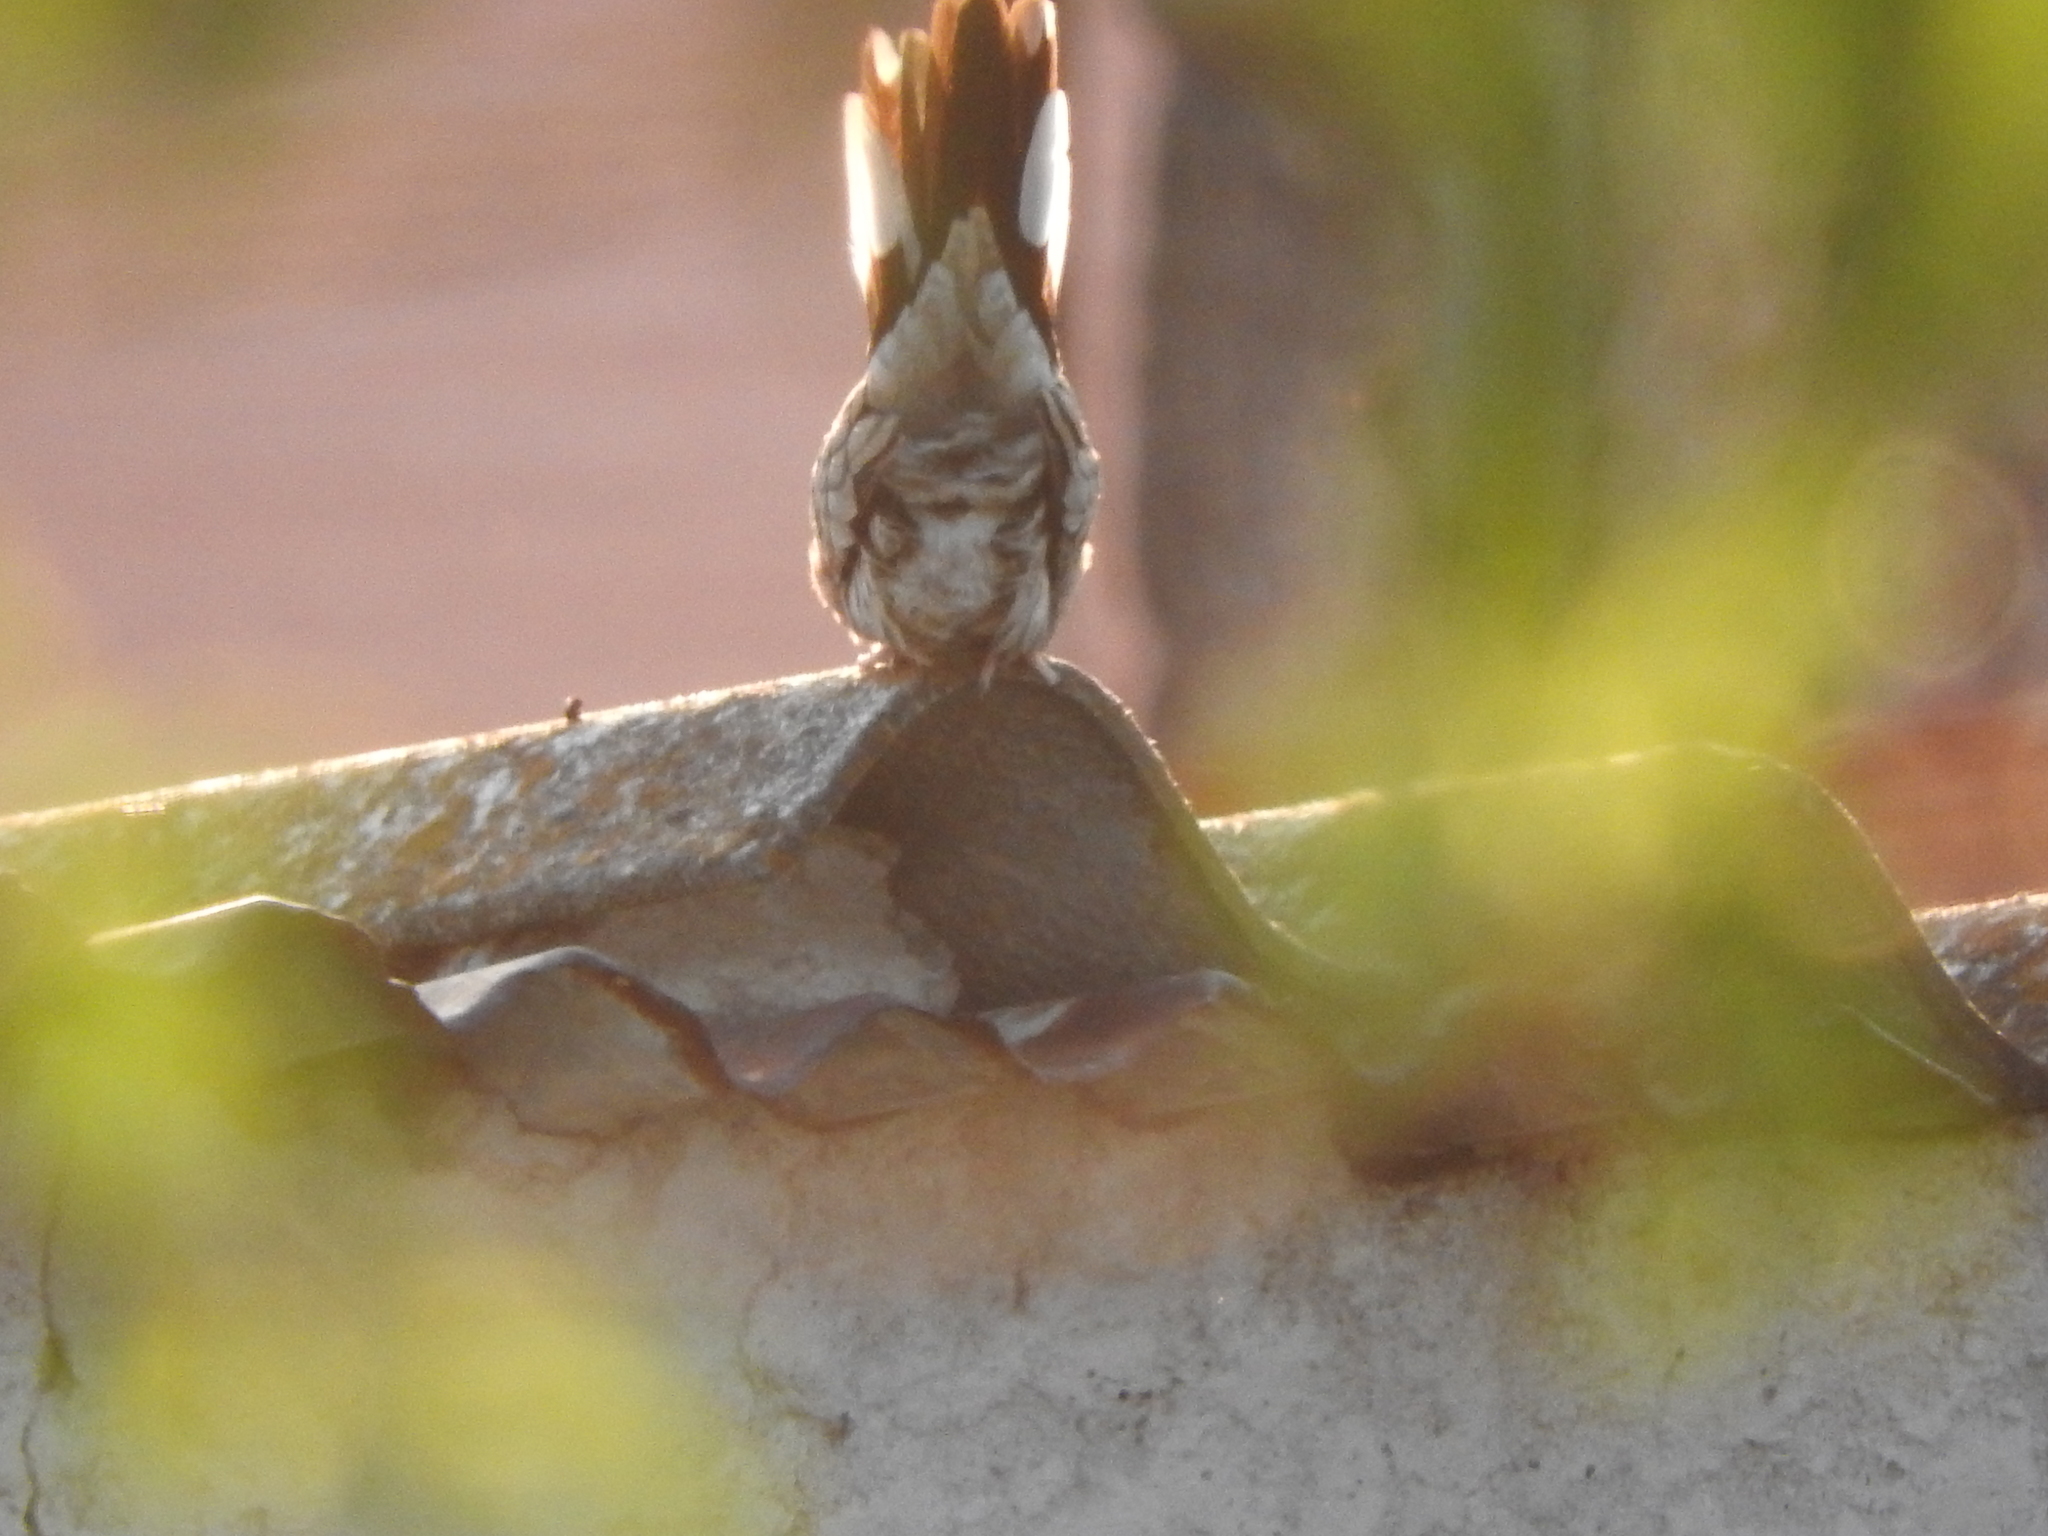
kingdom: Animalia
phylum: Chordata
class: Aves
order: Columbiformes
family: Columbidae
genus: Columbina
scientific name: Columbina inca
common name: Inca dove
